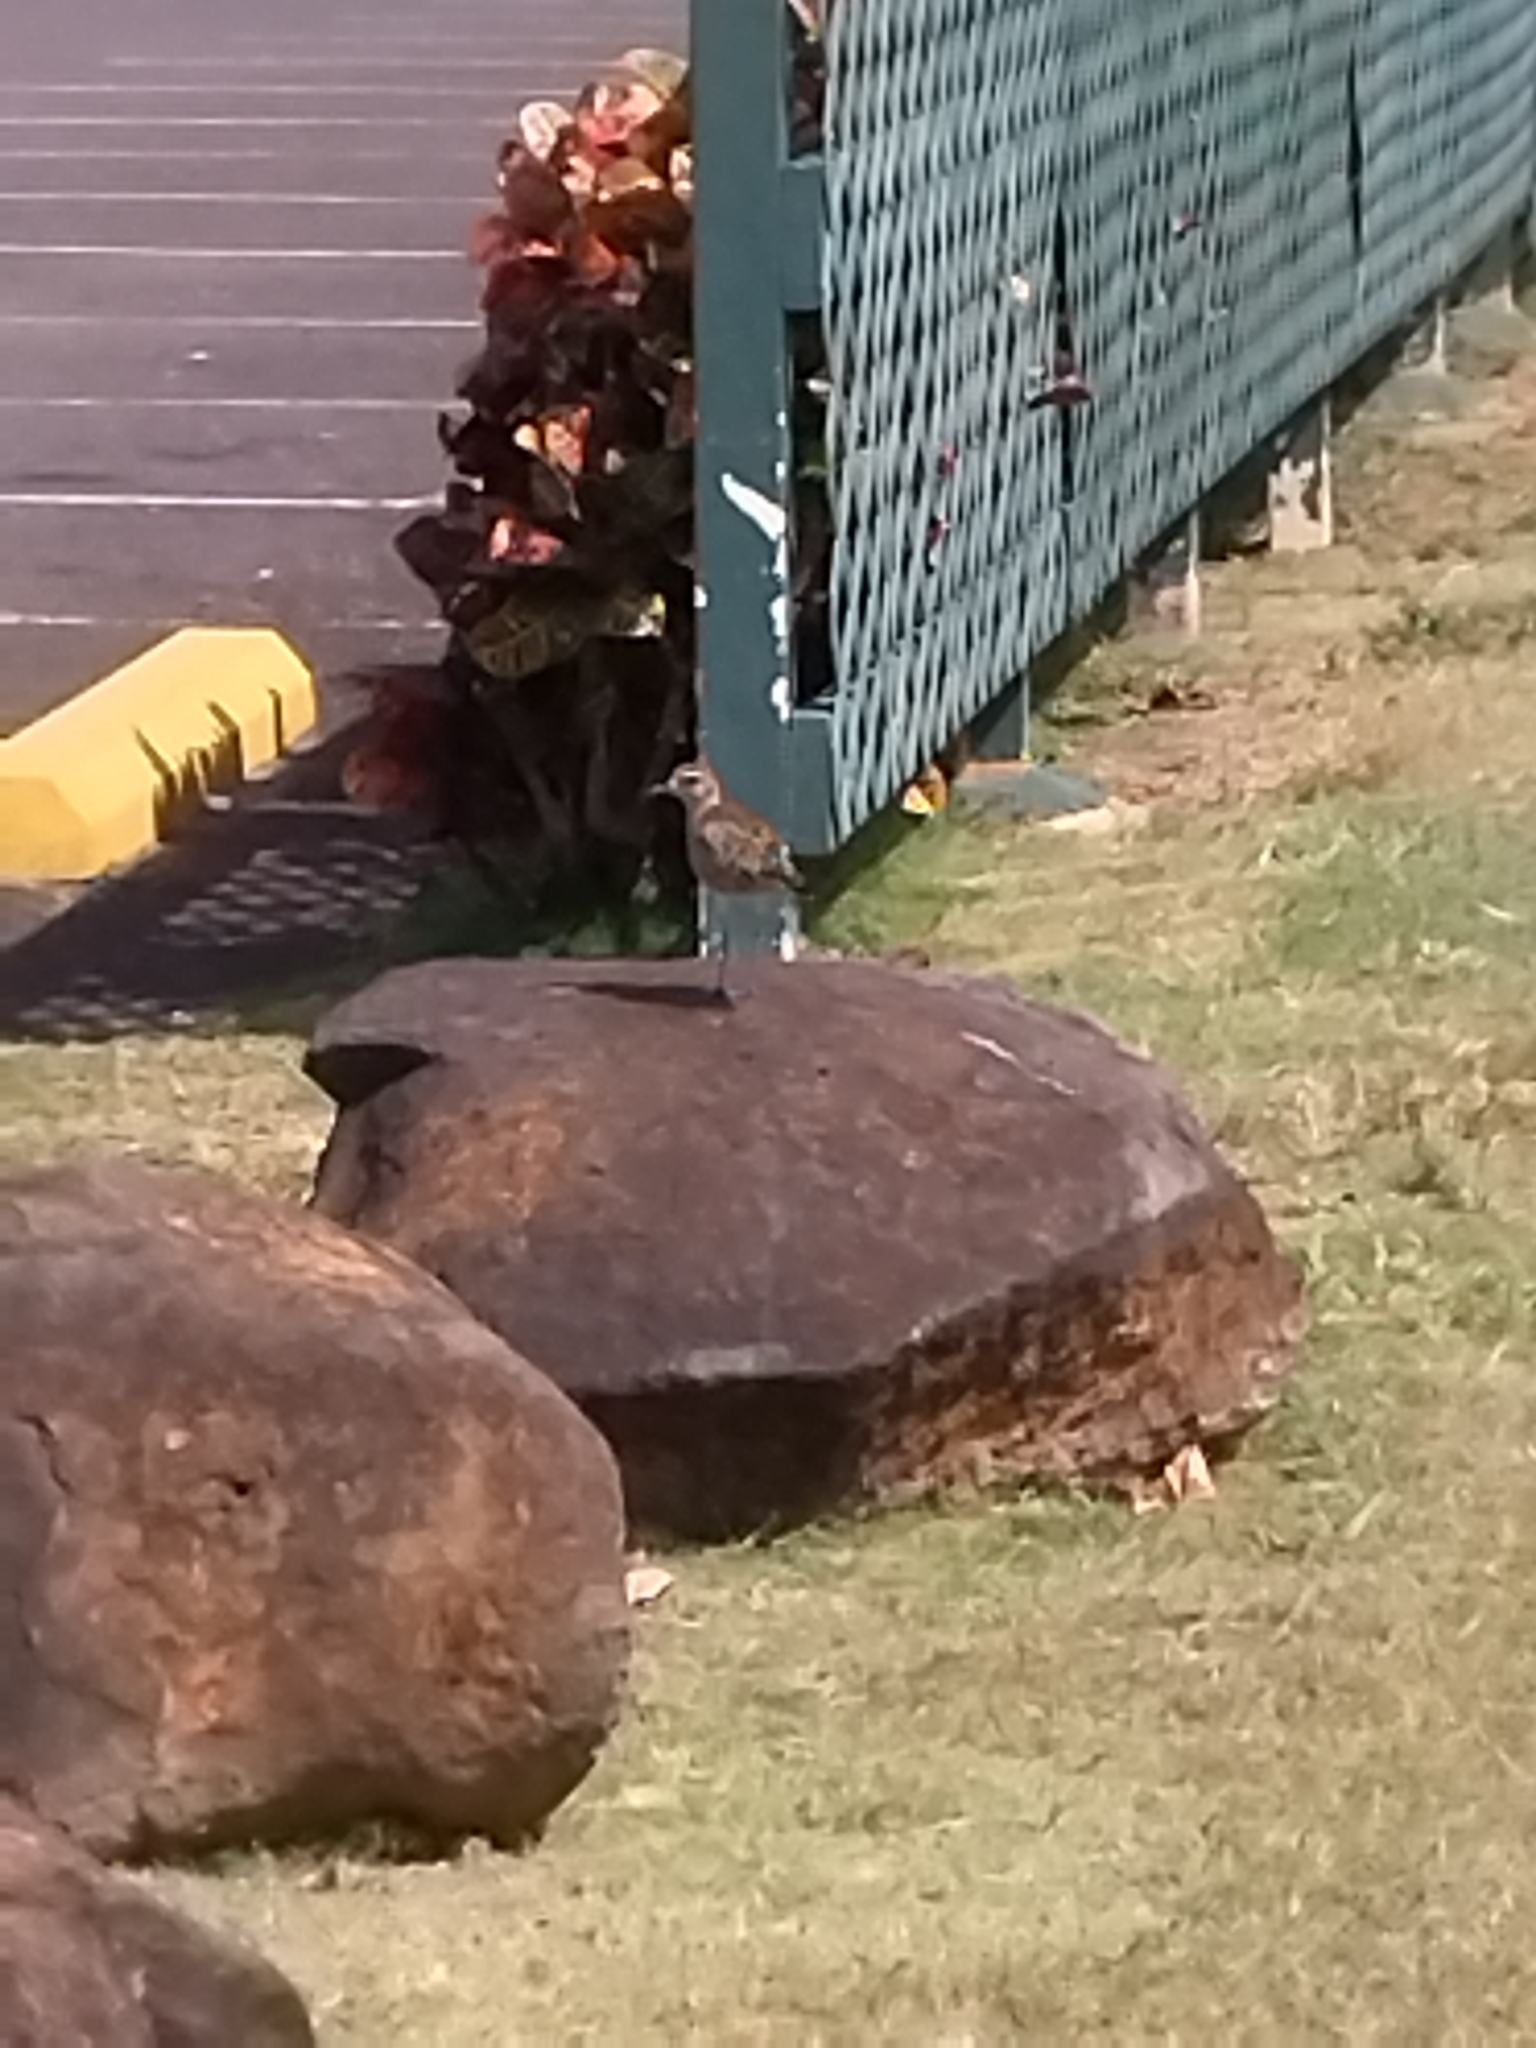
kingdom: Animalia
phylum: Chordata
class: Aves
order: Charadriiformes
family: Charadriidae
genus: Pluvialis
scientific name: Pluvialis fulva
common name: Pacific golden plover
